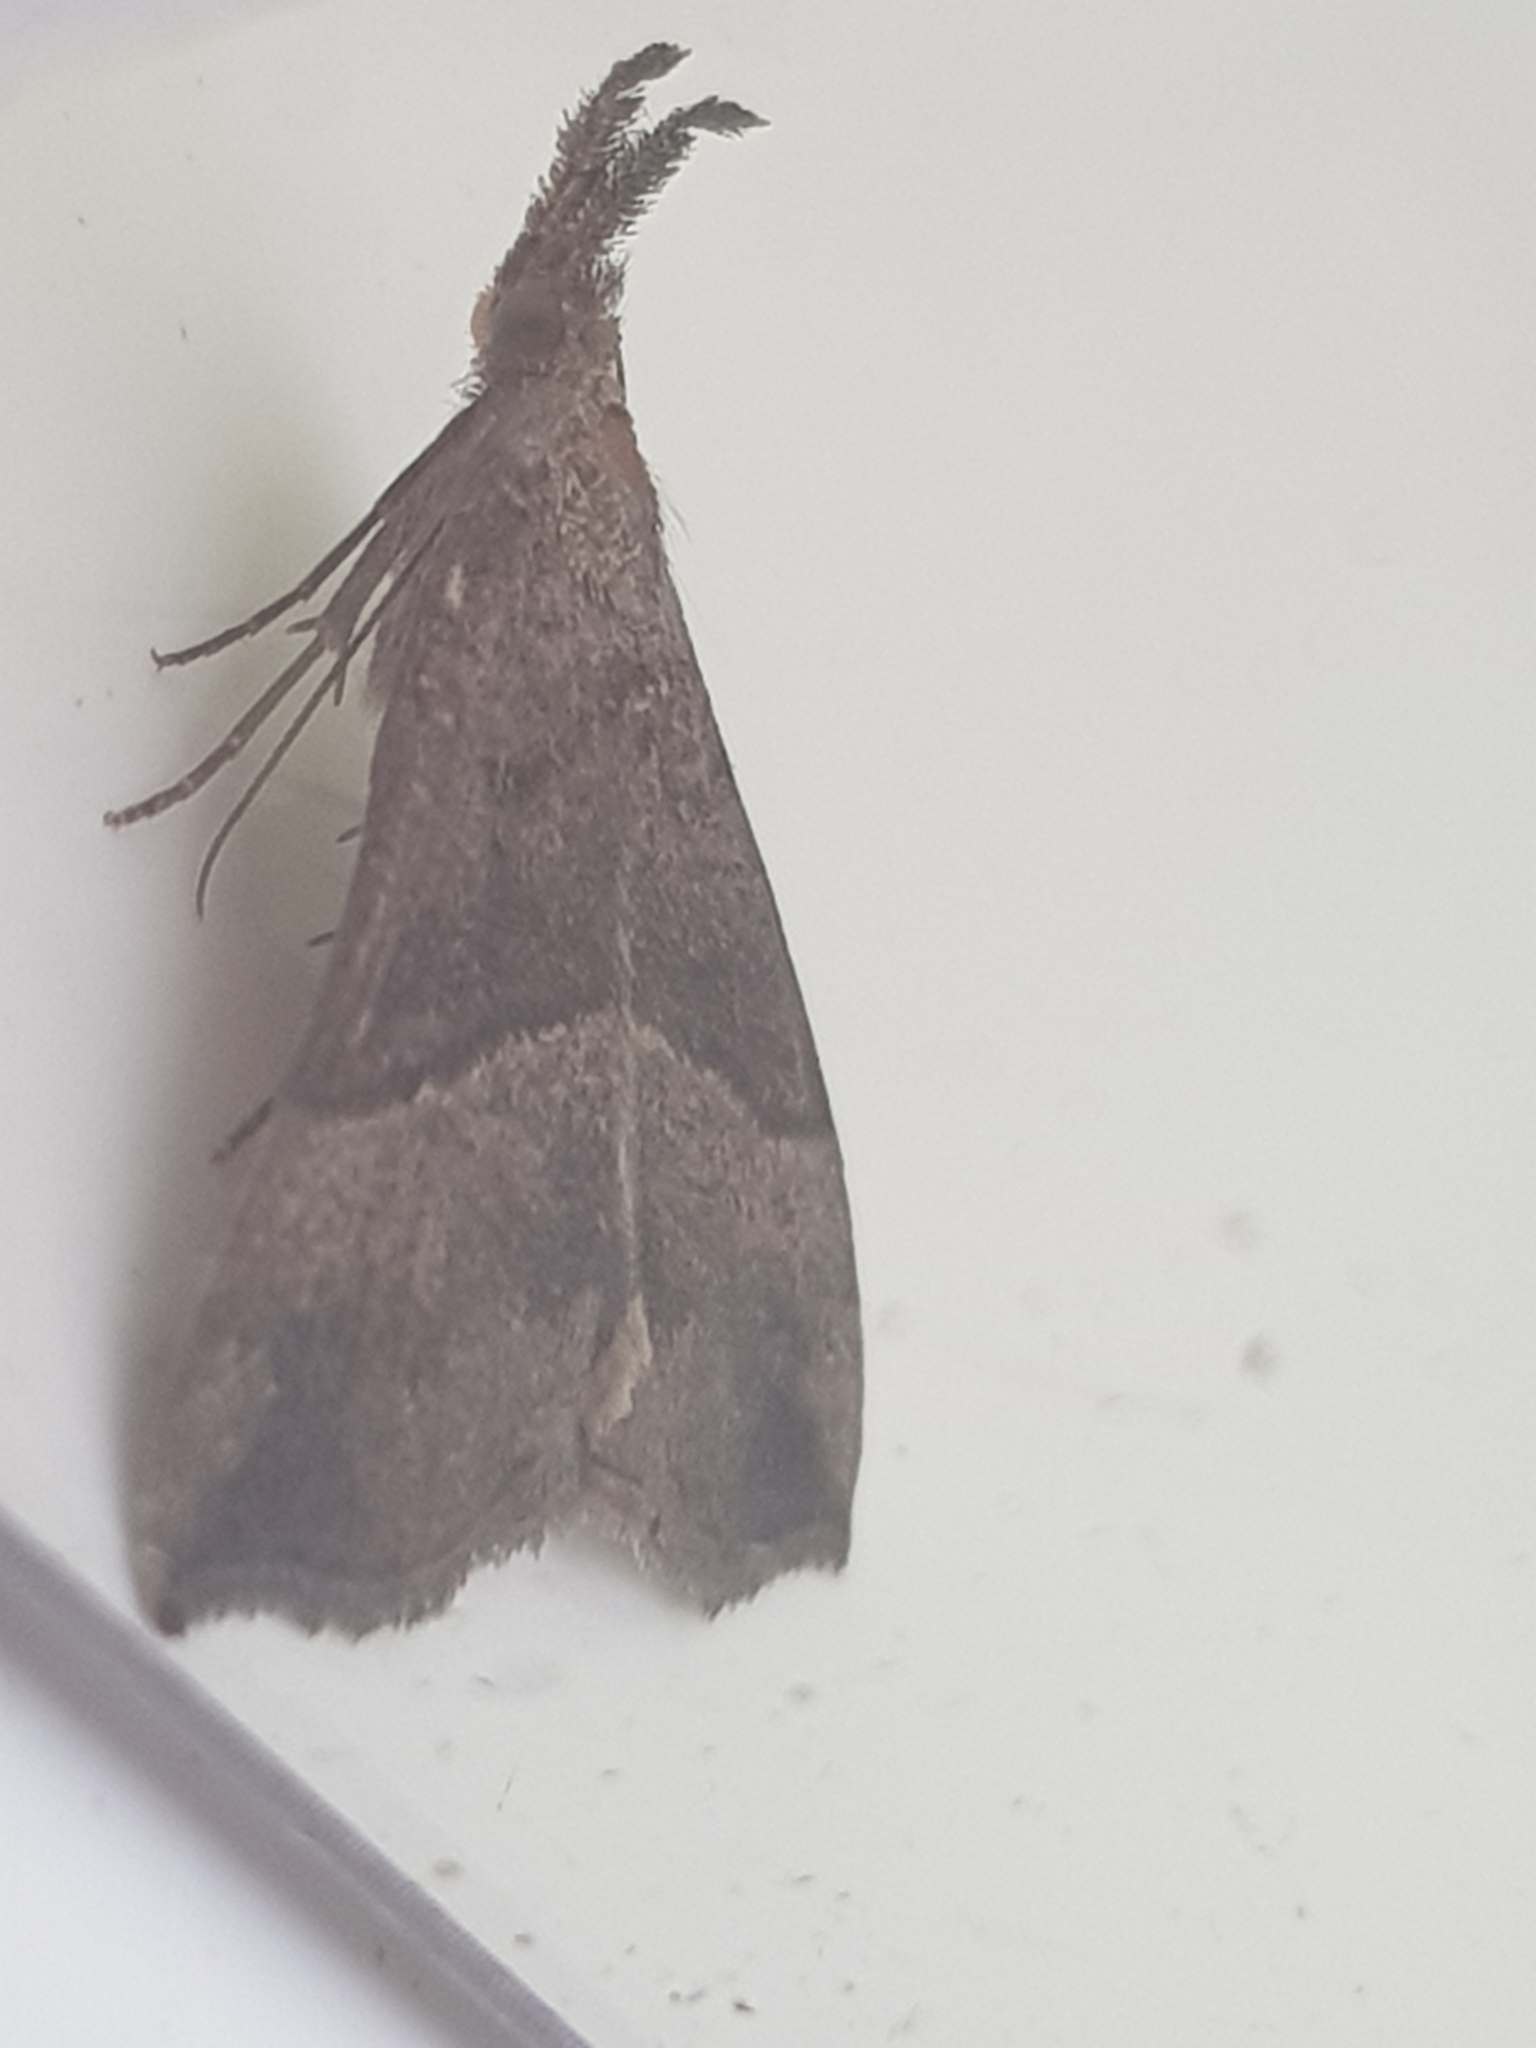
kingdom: Animalia
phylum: Arthropoda
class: Insecta
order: Lepidoptera
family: Erebidae
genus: Hypena
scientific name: Hypena proboscidalis
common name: Snout
